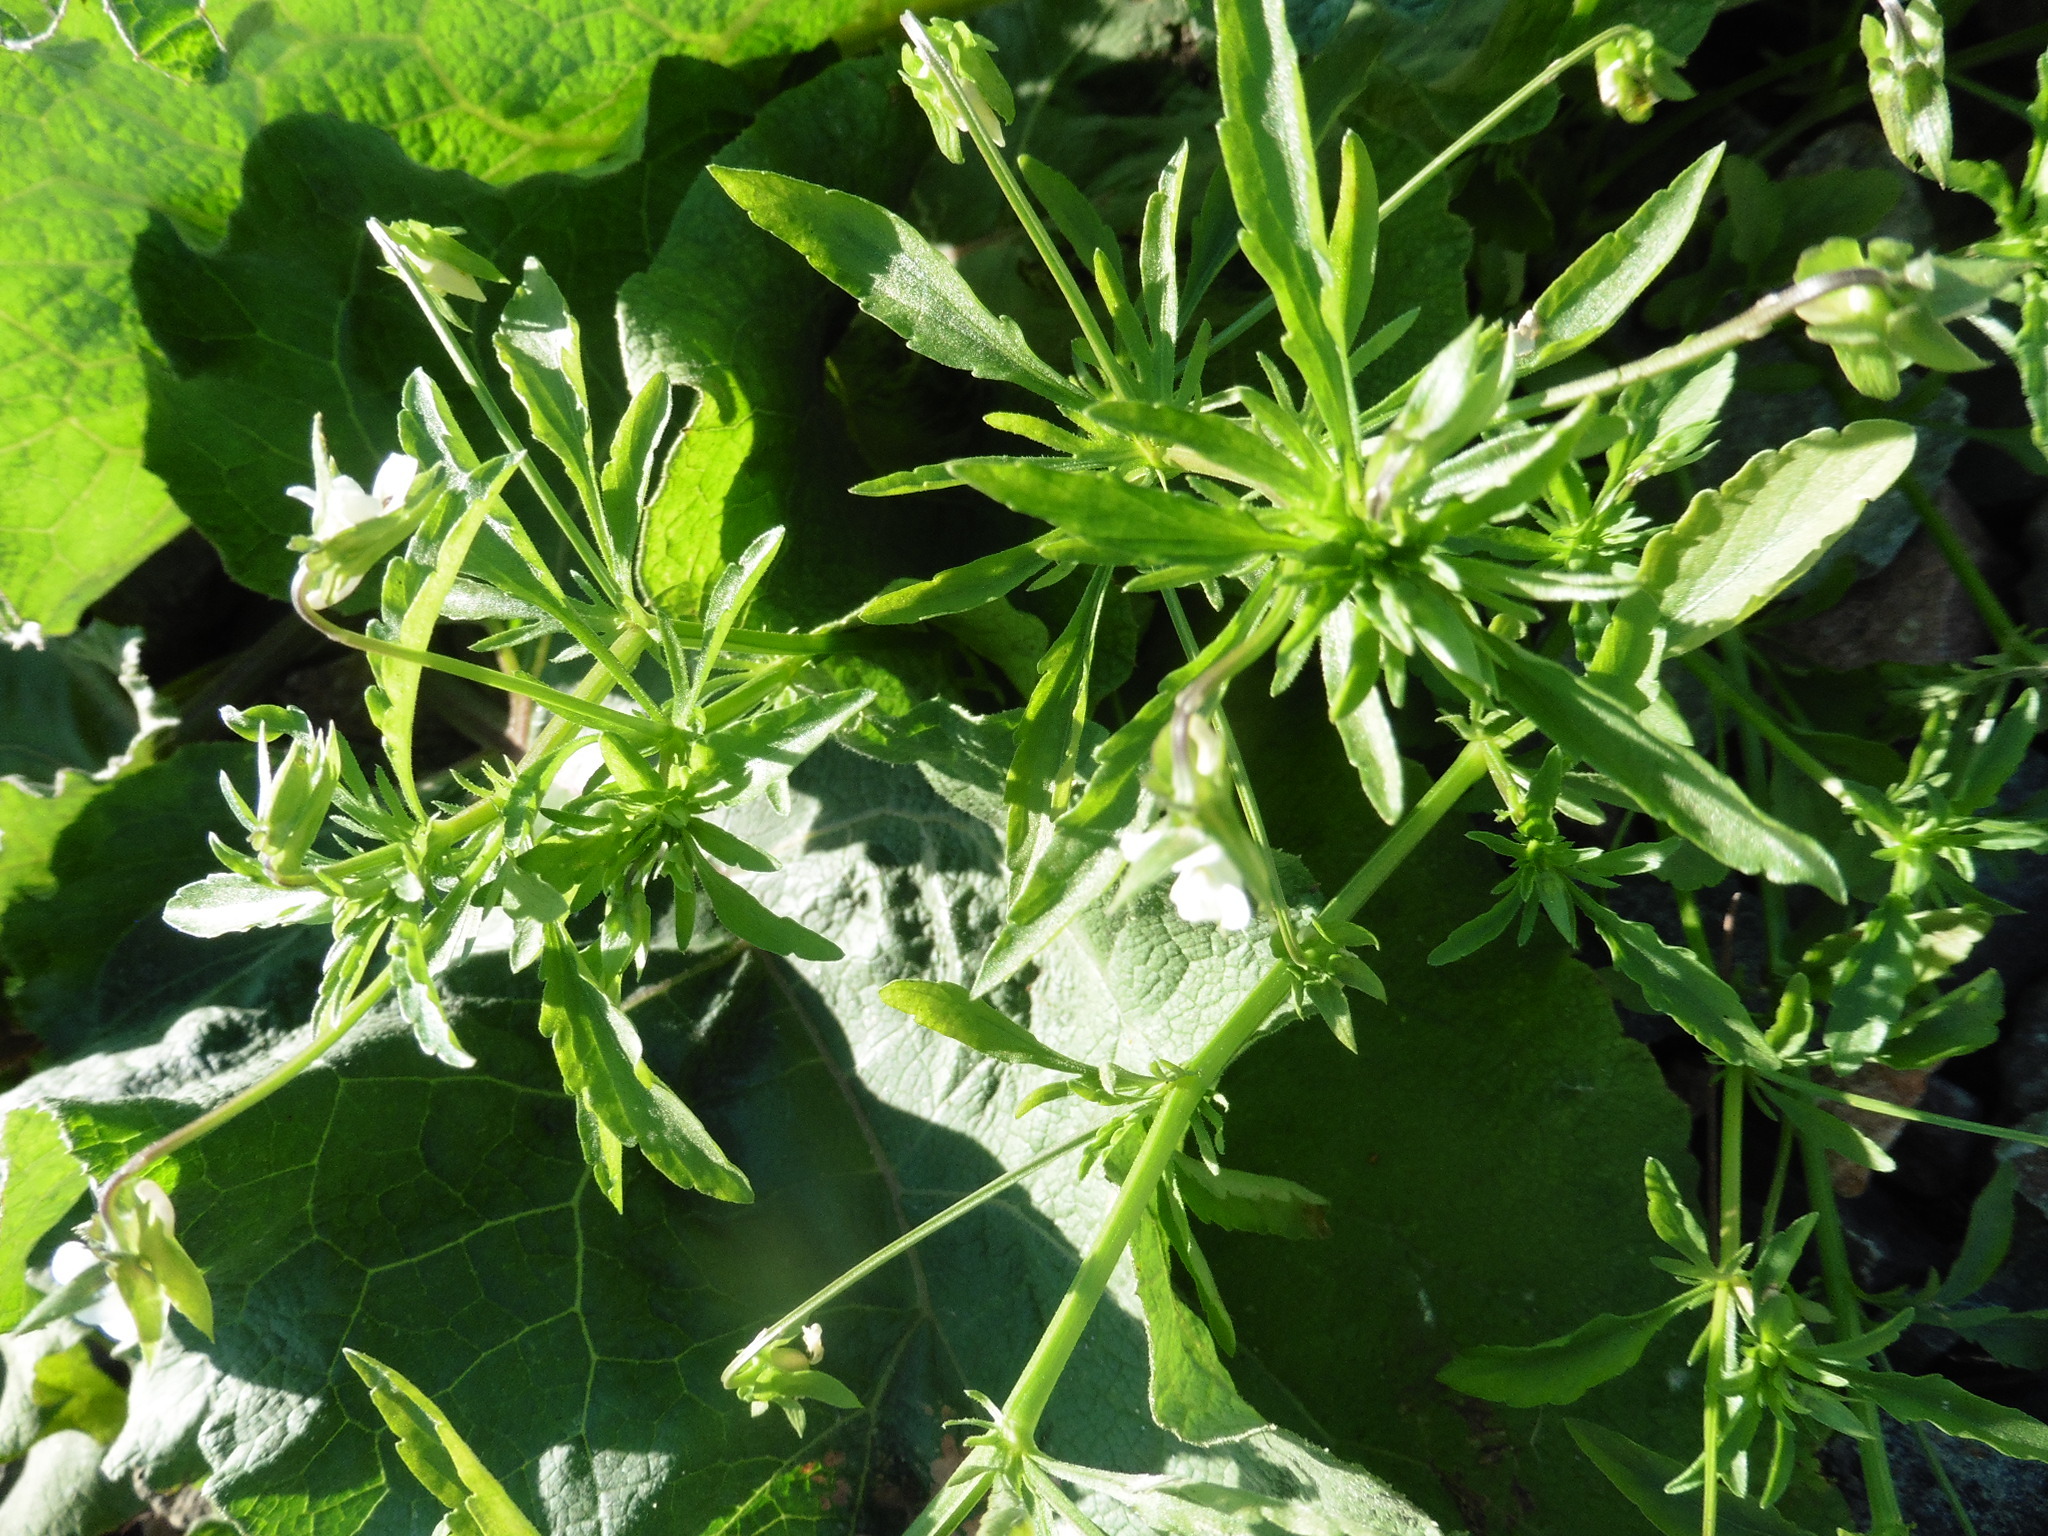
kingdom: Plantae
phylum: Tracheophyta
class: Magnoliopsida
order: Malpighiales
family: Violaceae
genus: Viola
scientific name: Viola arvensis
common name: Field pansy
